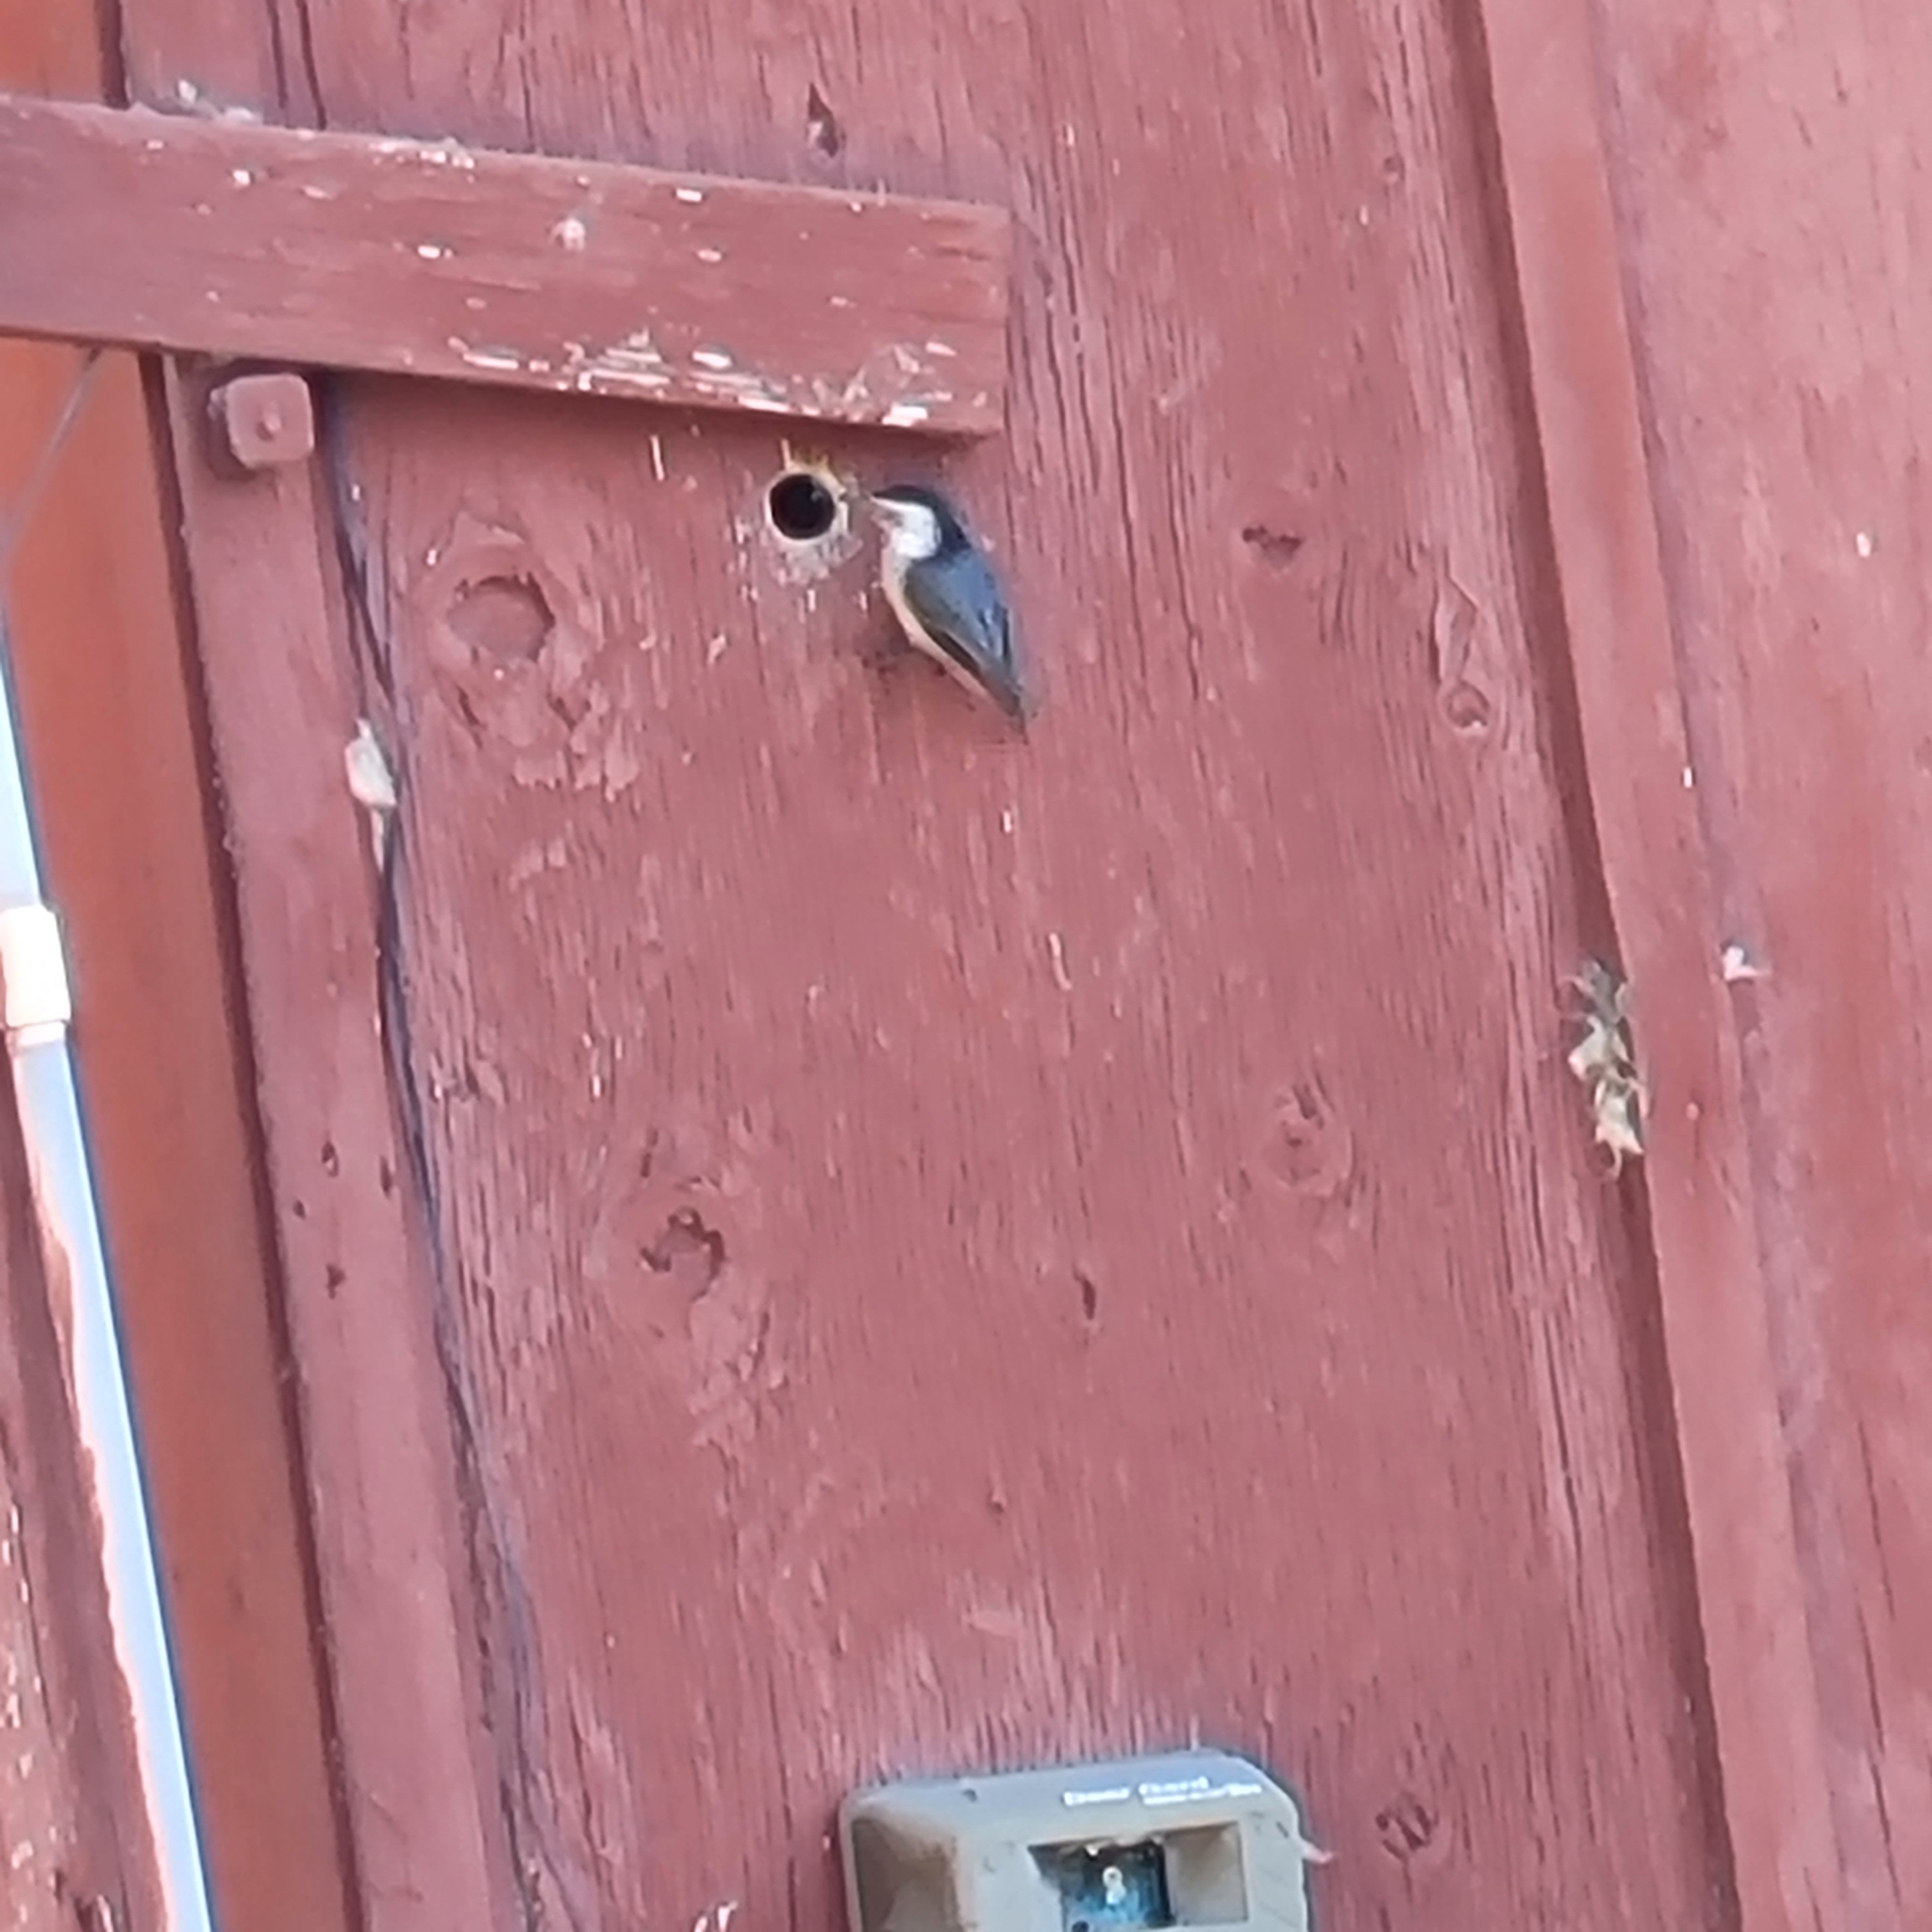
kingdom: Animalia
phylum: Chordata
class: Aves
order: Passeriformes
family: Sittidae
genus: Sitta
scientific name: Sitta carolinensis
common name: White-breasted nuthatch
